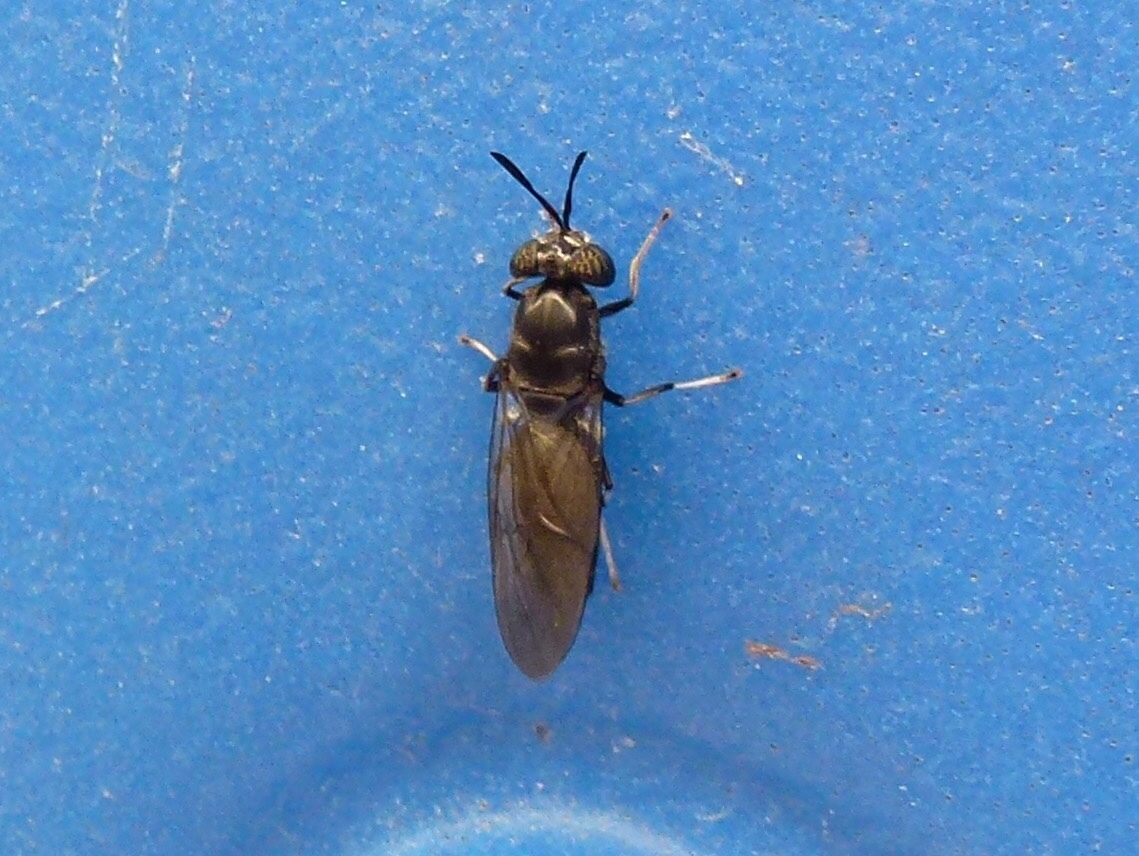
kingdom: Animalia
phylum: Arthropoda
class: Insecta
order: Diptera
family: Stratiomyidae
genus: Hermetia
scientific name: Hermetia illucens
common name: Black soldier fly
